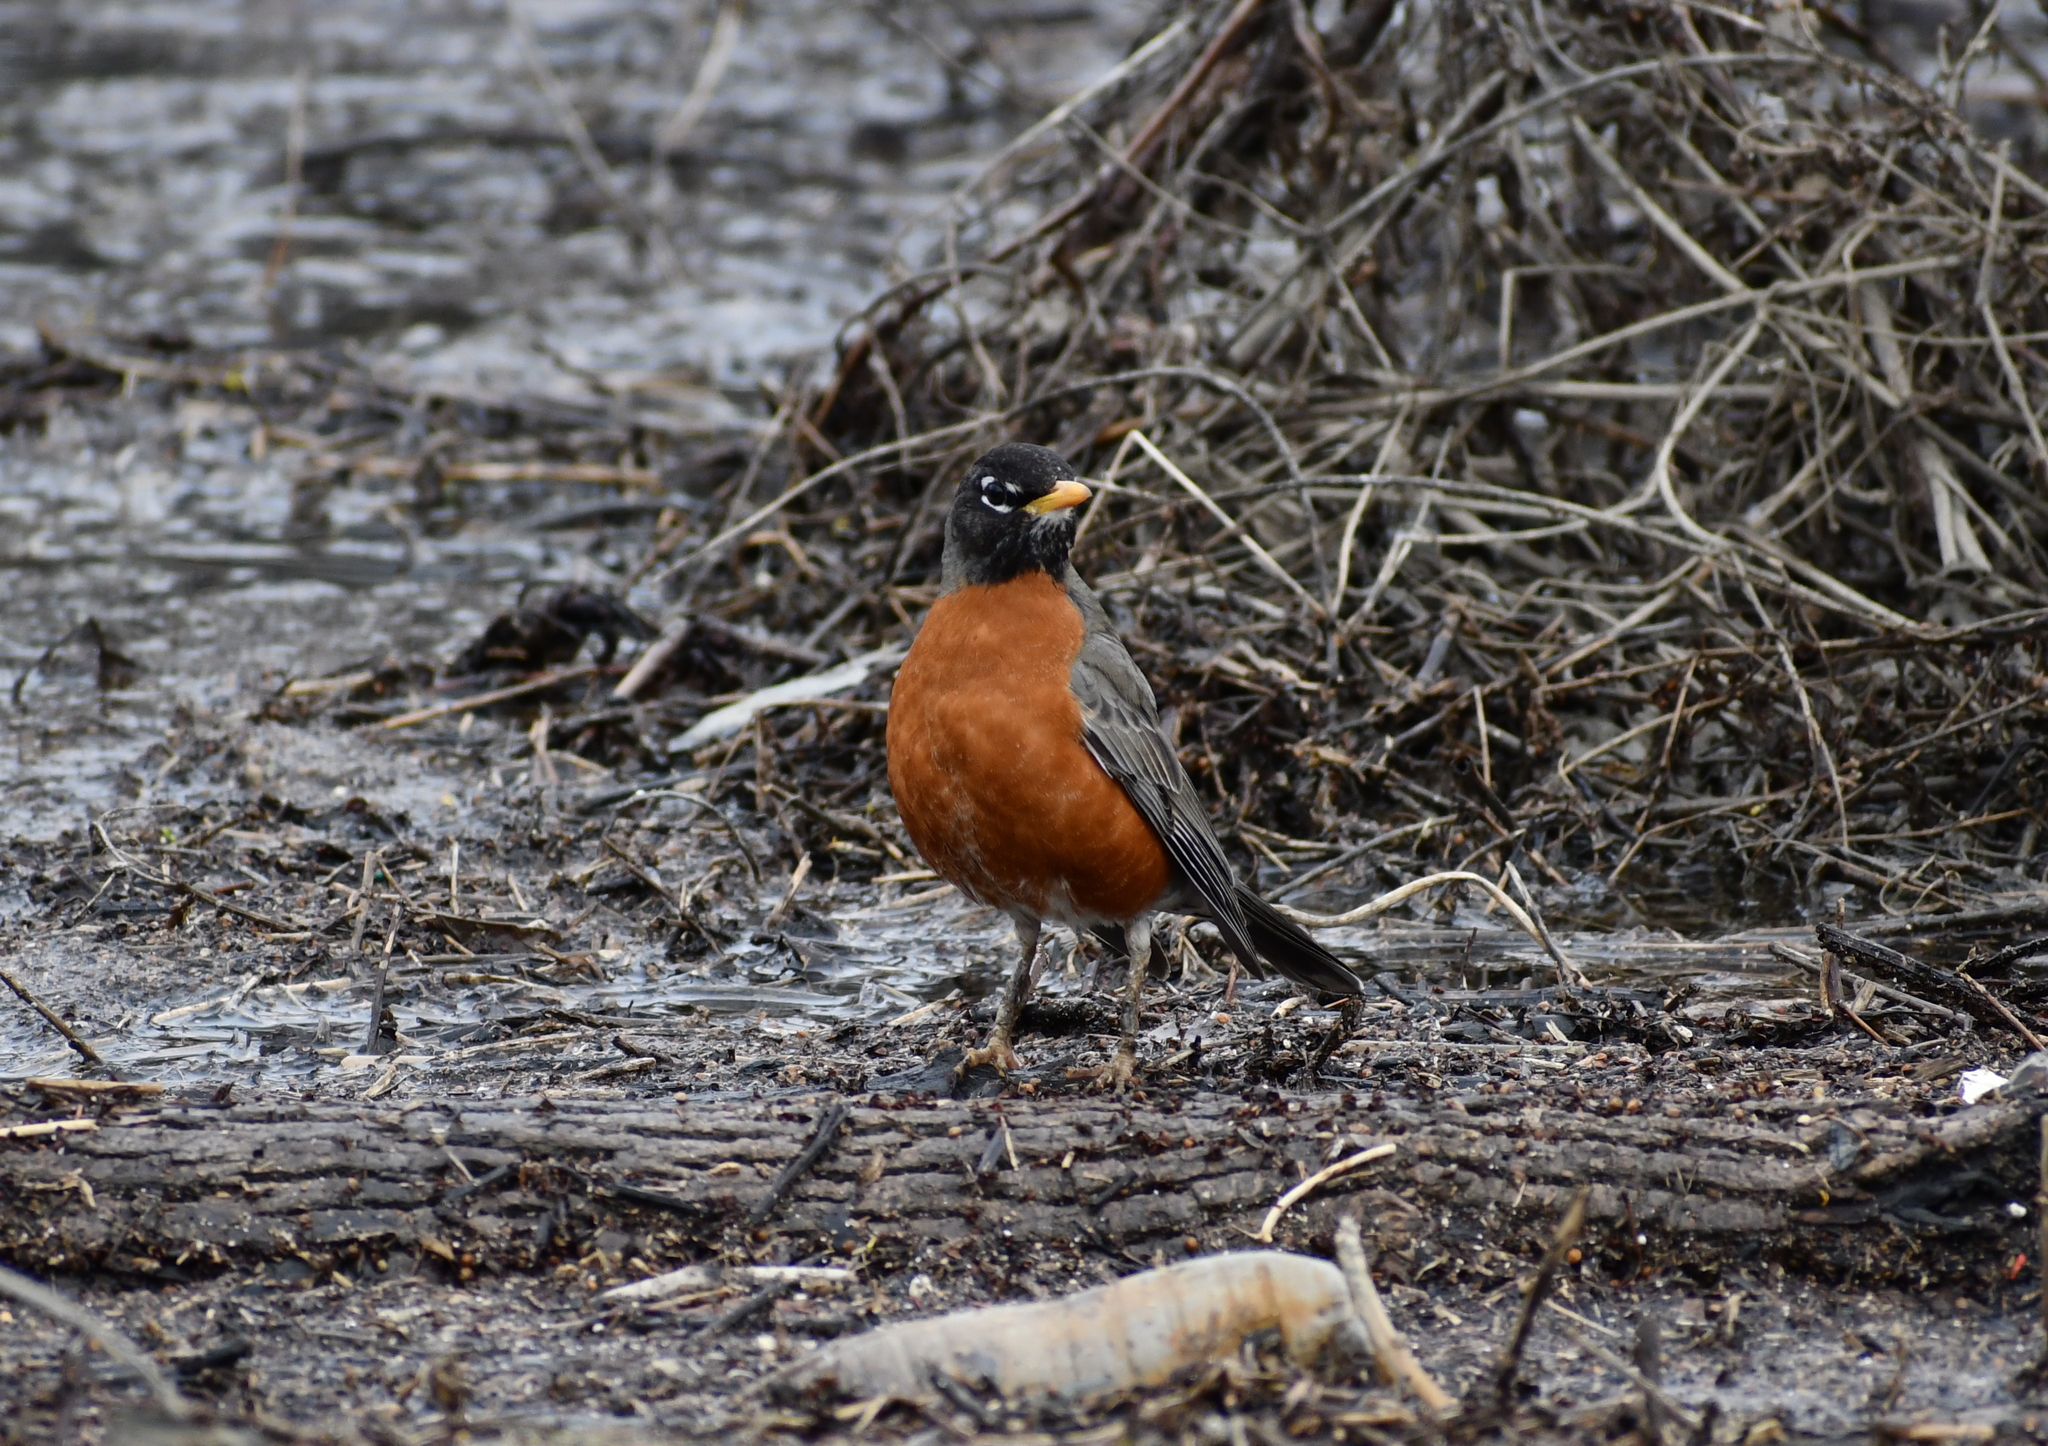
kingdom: Animalia
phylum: Chordata
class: Aves
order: Passeriformes
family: Turdidae
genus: Turdus
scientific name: Turdus migratorius
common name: American robin
